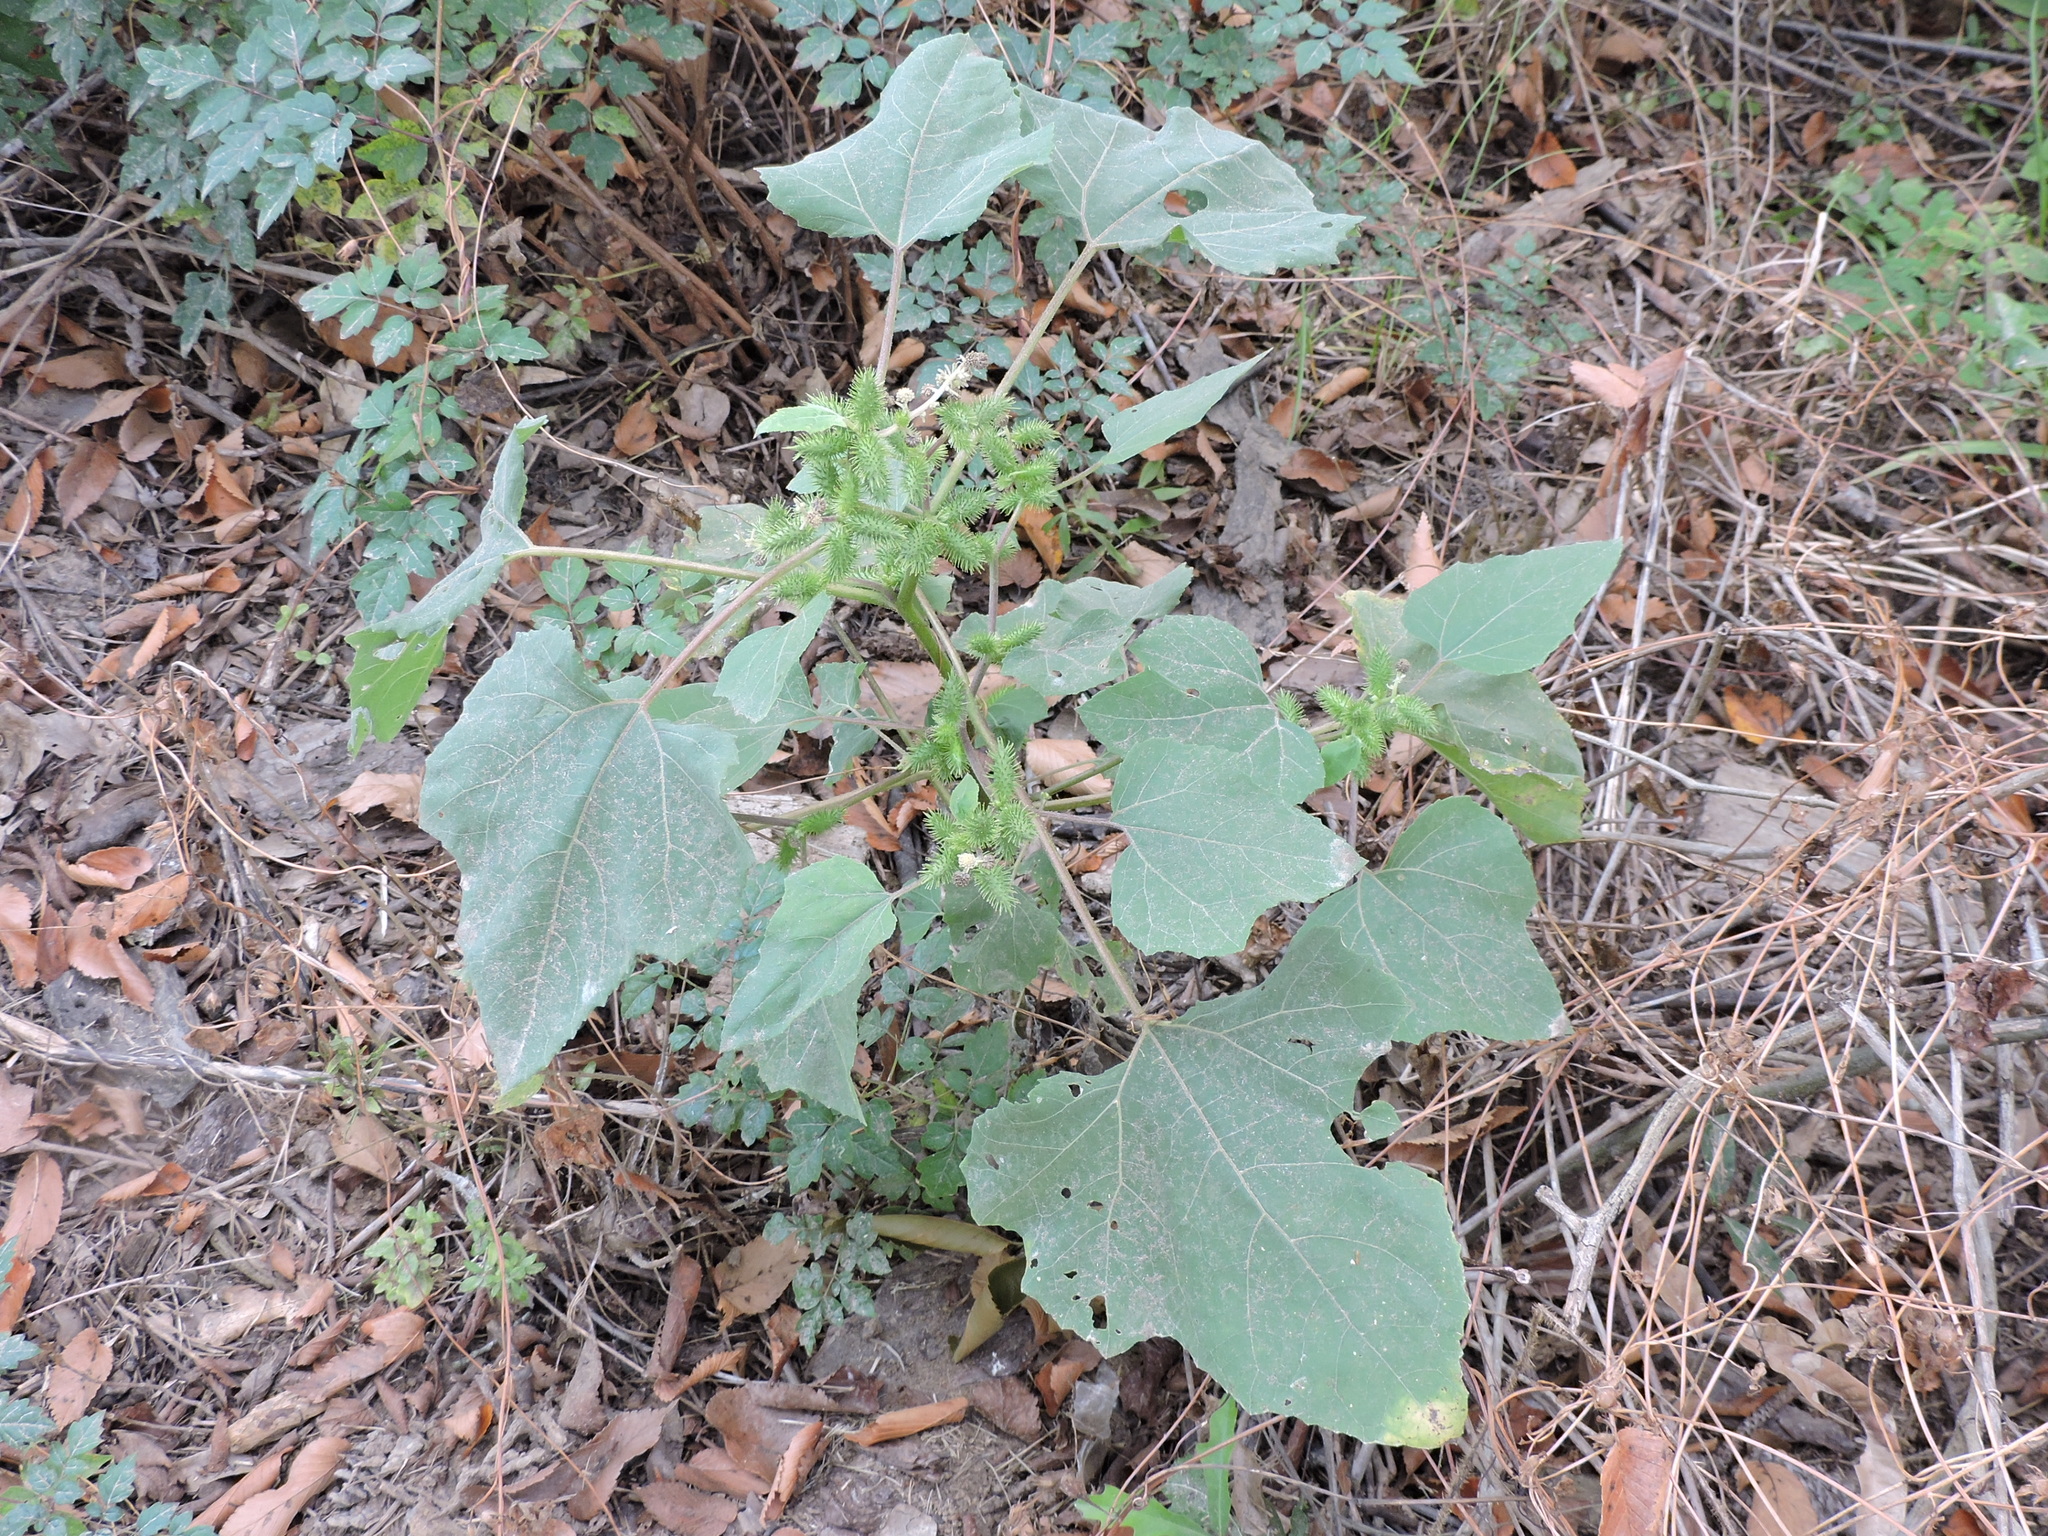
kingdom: Plantae
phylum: Tracheophyta
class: Magnoliopsida
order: Asterales
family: Asteraceae
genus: Xanthium
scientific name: Xanthium strumarium
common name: Rough cocklebur
